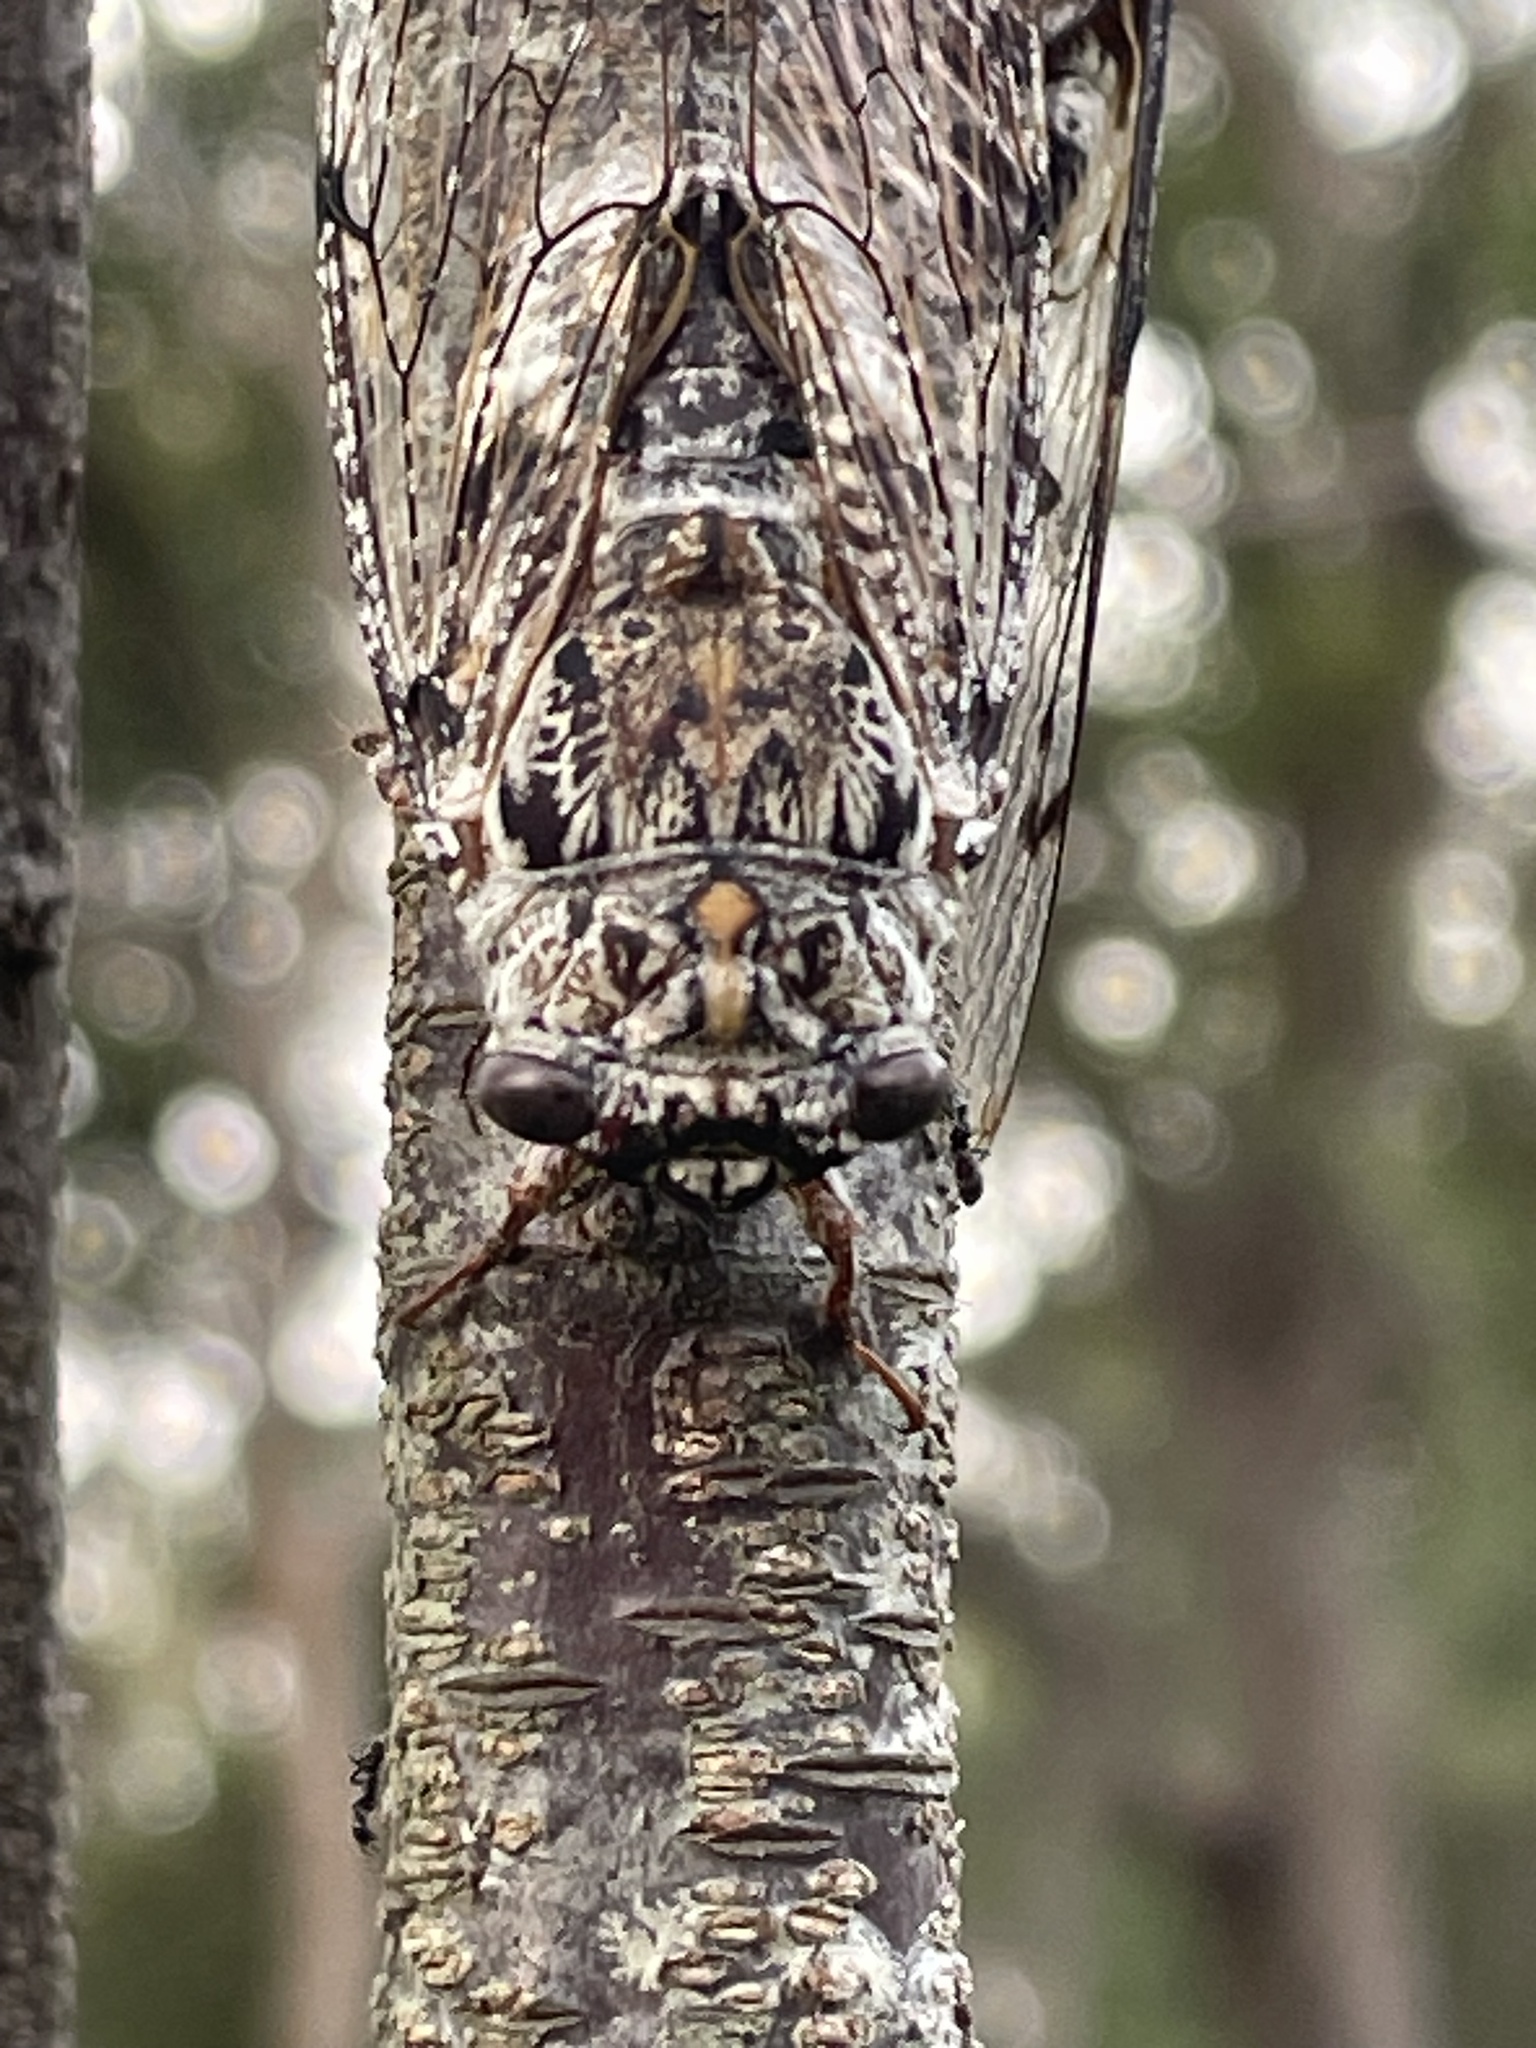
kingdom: Animalia
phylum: Arthropoda
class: Insecta
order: Hemiptera
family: Cicadidae
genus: Aleeta
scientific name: Aleeta curvicosta
